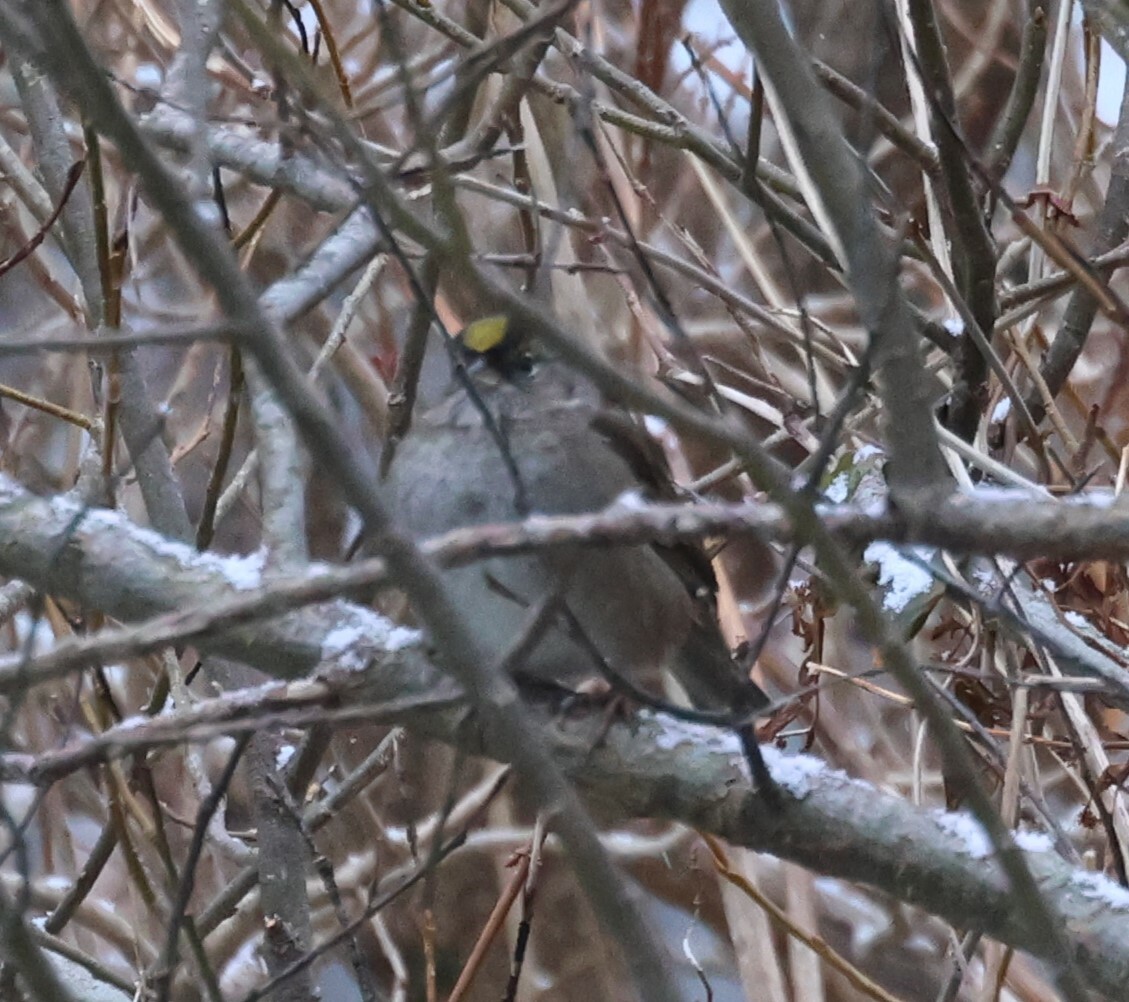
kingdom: Animalia
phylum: Chordata
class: Aves
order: Passeriformes
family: Passerellidae
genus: Zonotrichia
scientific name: Zonotrichia atricapilla
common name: Golden-crowned sparrow
